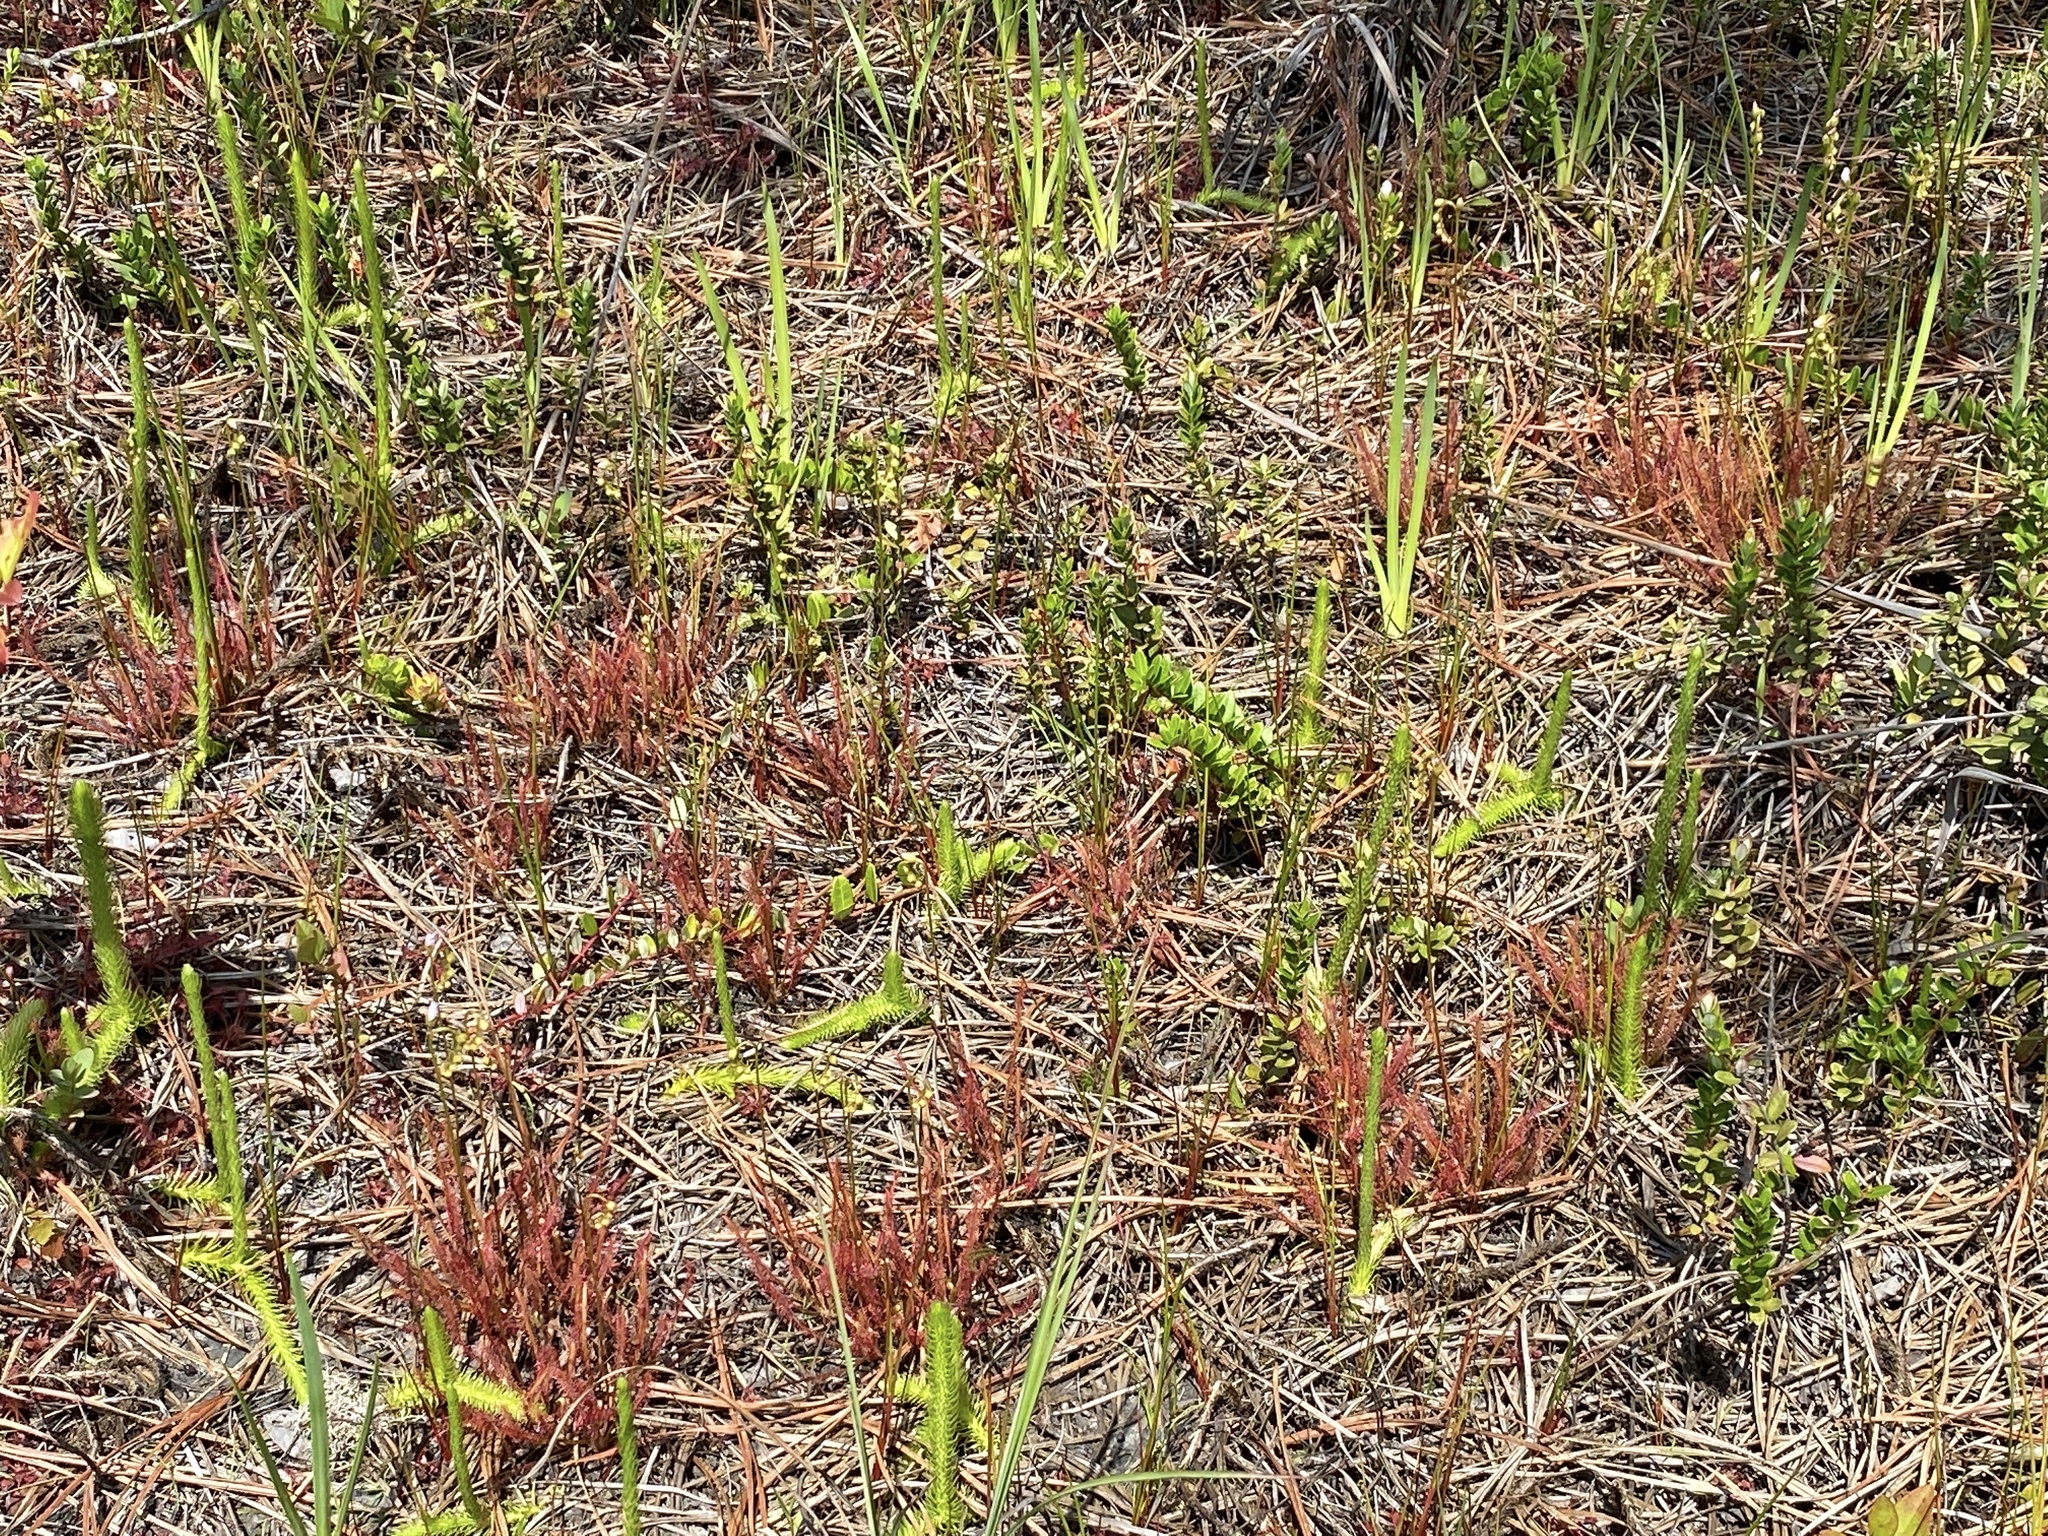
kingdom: Plantae
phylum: Tracheophyta
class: Magnoliopsida
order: Caryophyllales
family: Droseraceae
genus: Drosera
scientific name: Drosera hybrida
